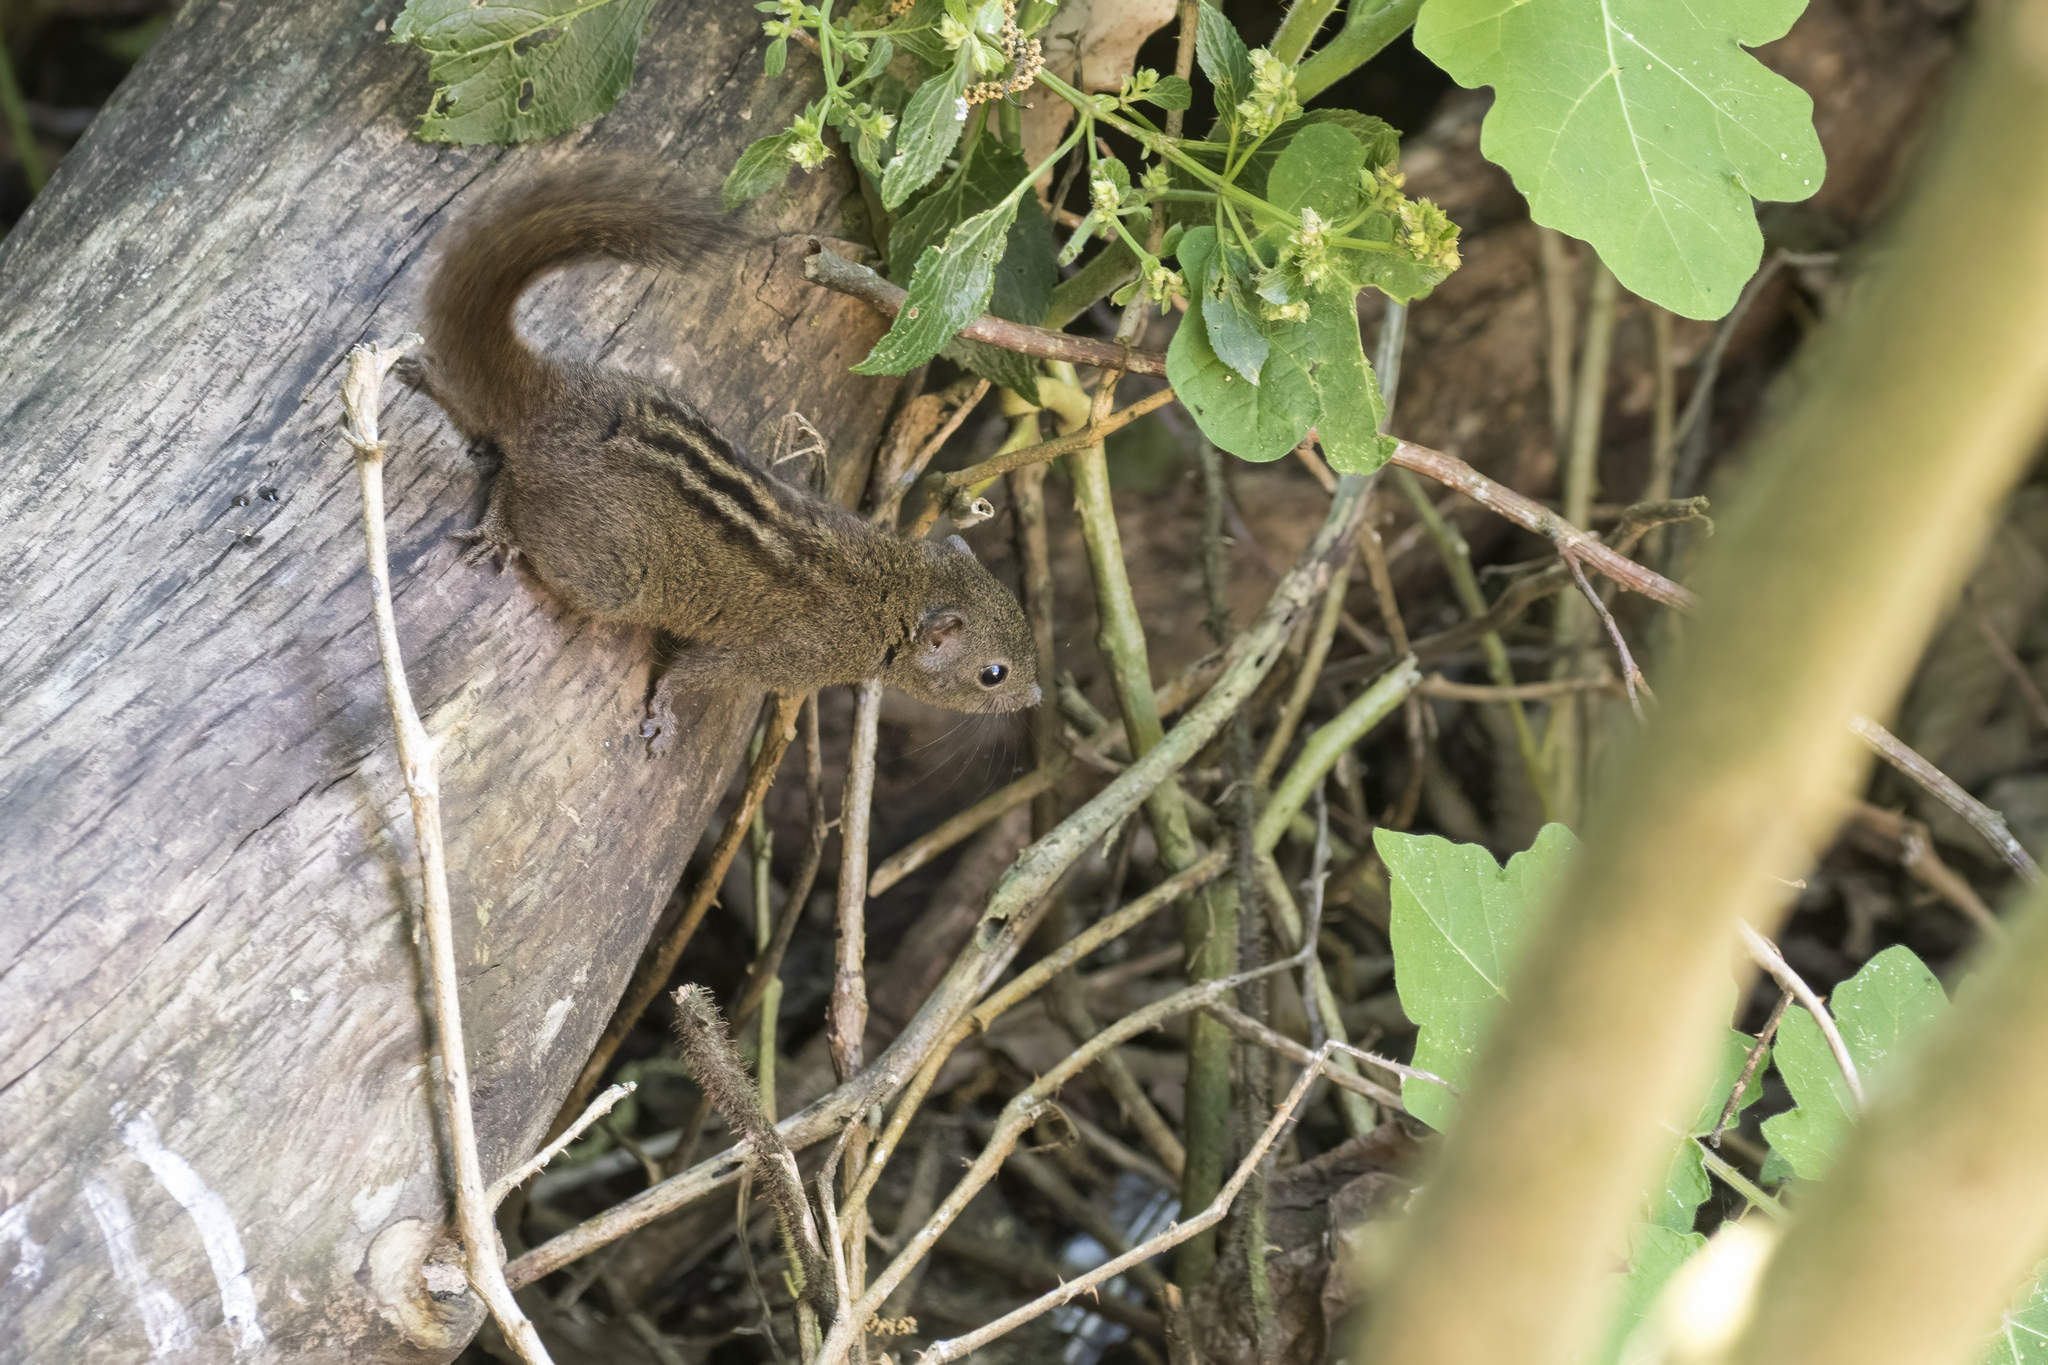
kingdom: Animalia
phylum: Chordata
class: Mammalia
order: Rodentia
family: Sciuridae
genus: Funambulus
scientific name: Funambulus sublineatus
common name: Dusky palm squirrel
